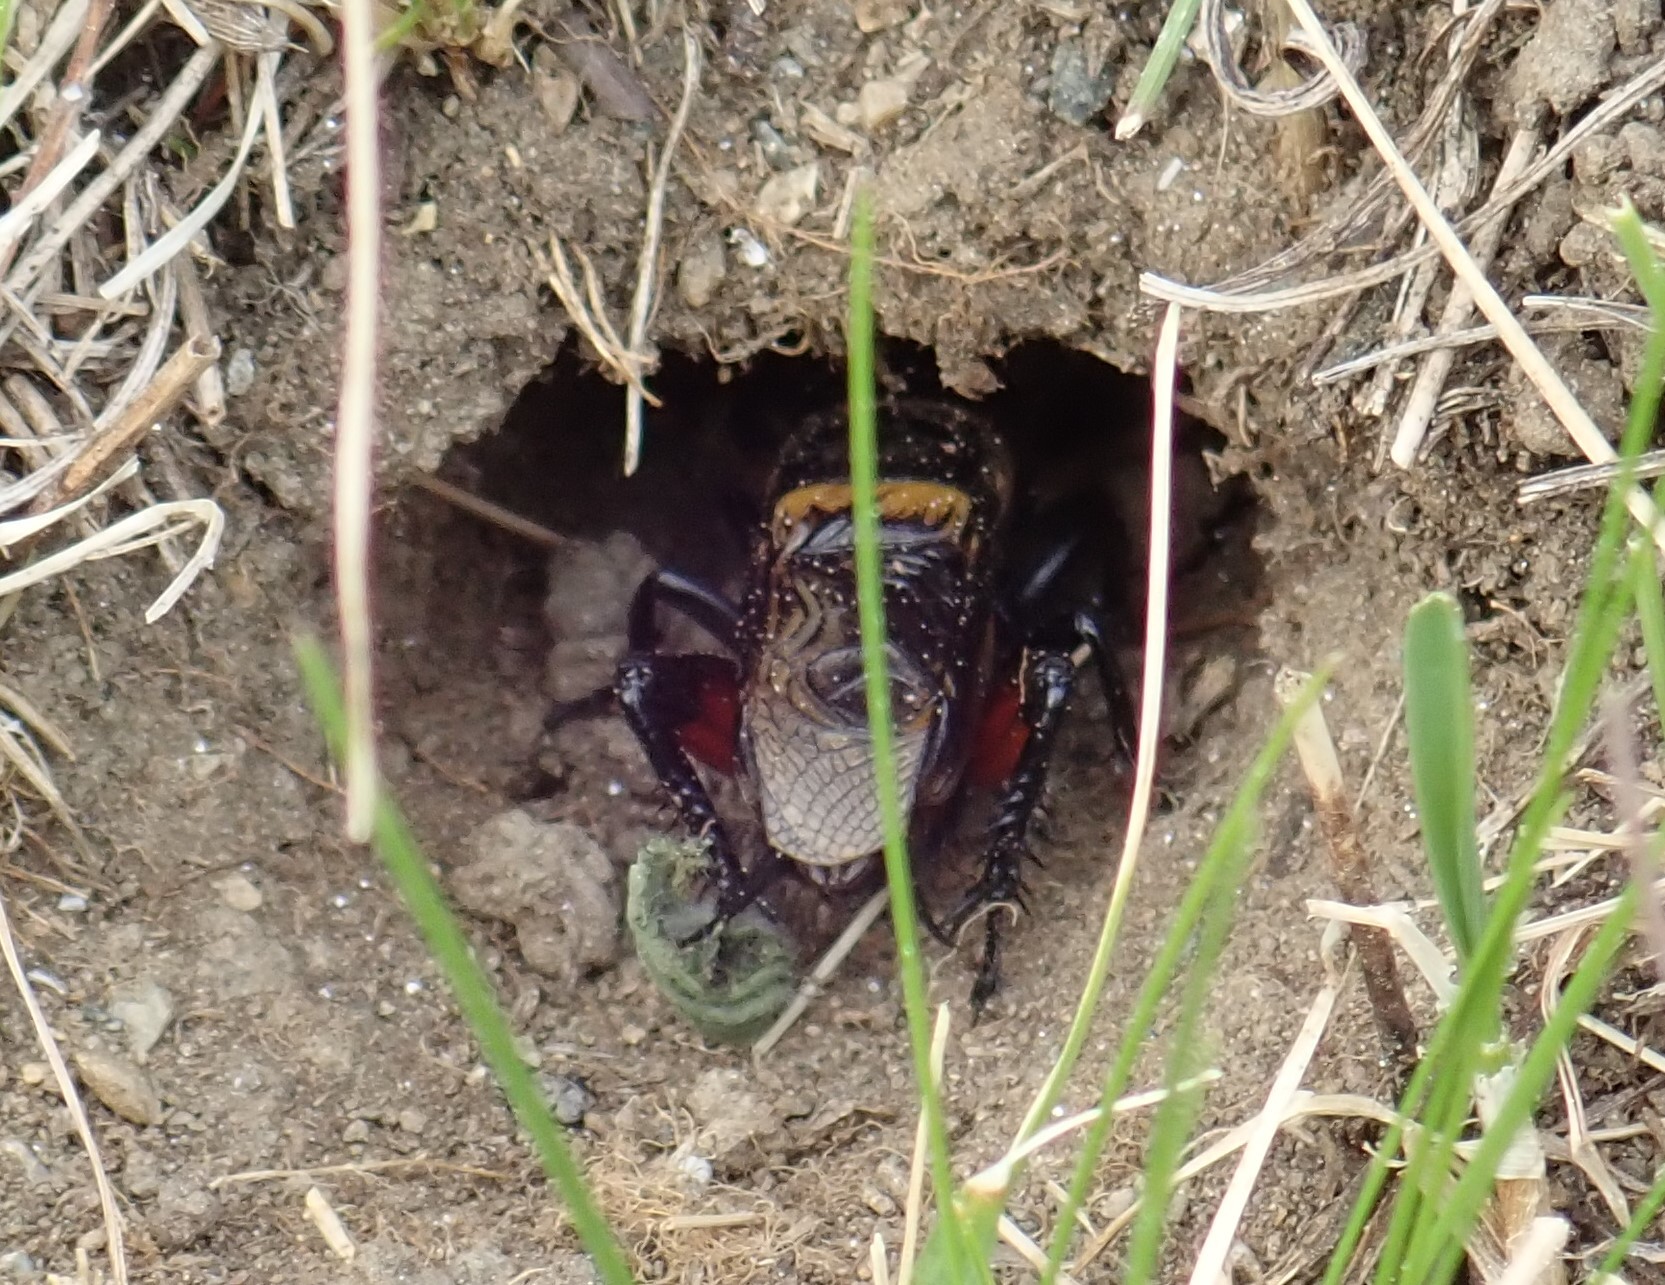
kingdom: Animalia
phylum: Arthropoda
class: Insecta
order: Orthoptera
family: Gryllidae
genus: Gryllus
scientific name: Gryllus campestris
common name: Field cricket
